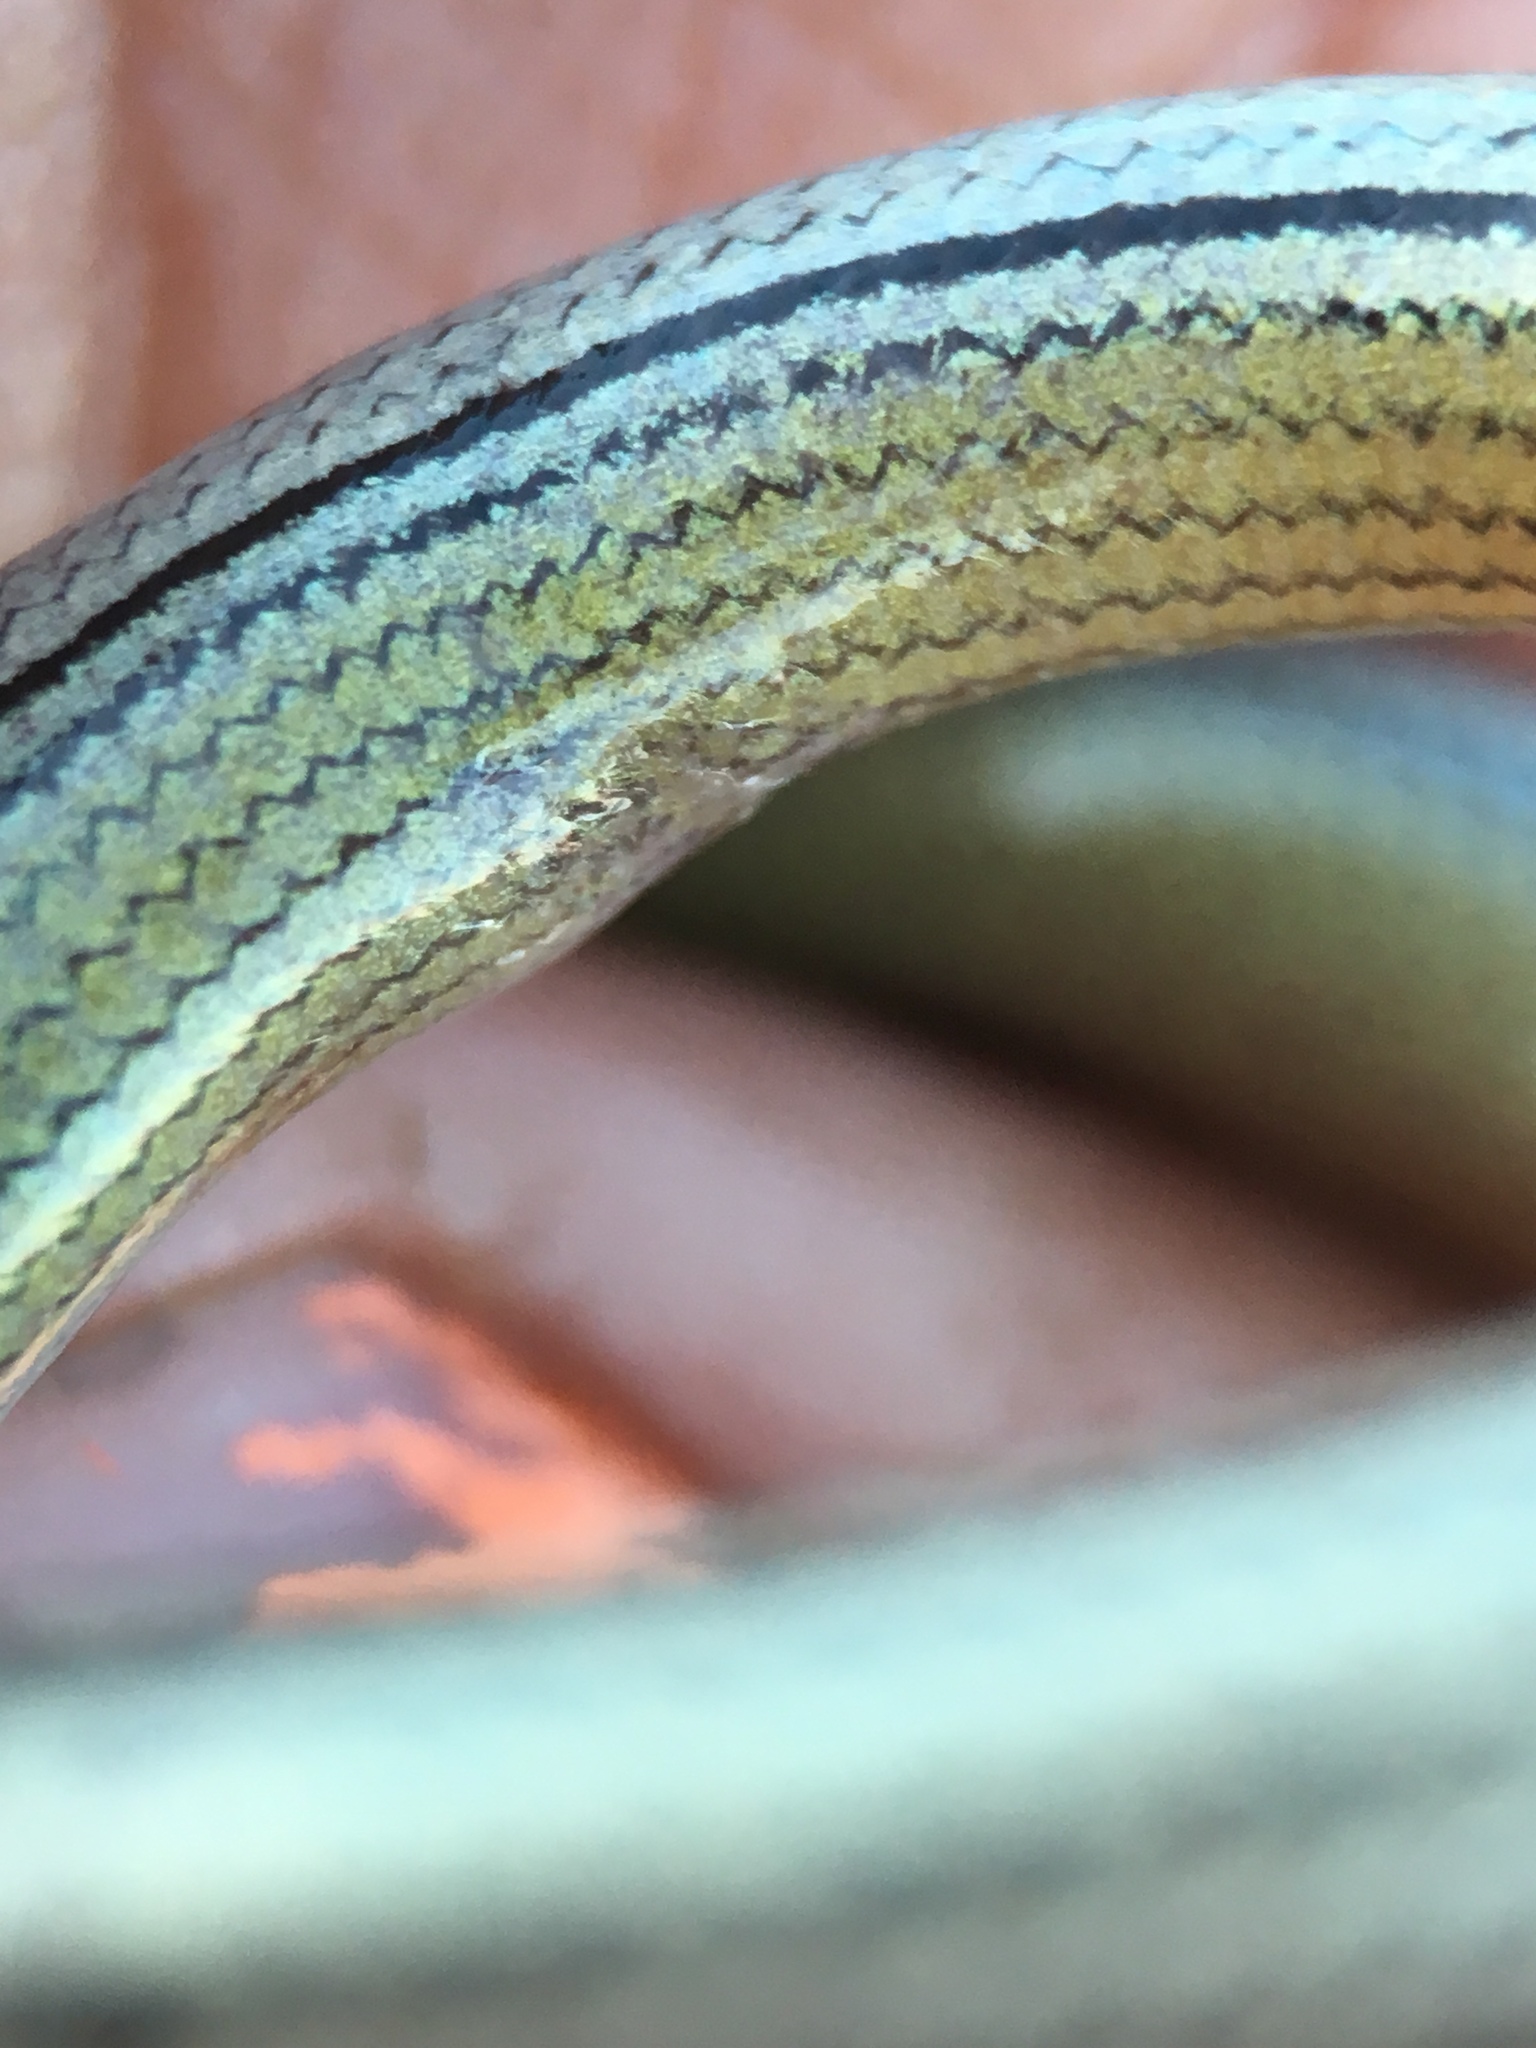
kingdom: Animalia
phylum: Chordata
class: Squamata
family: Anguidae
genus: Anniella
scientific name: Anniella pulchra
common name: California legless lizard
